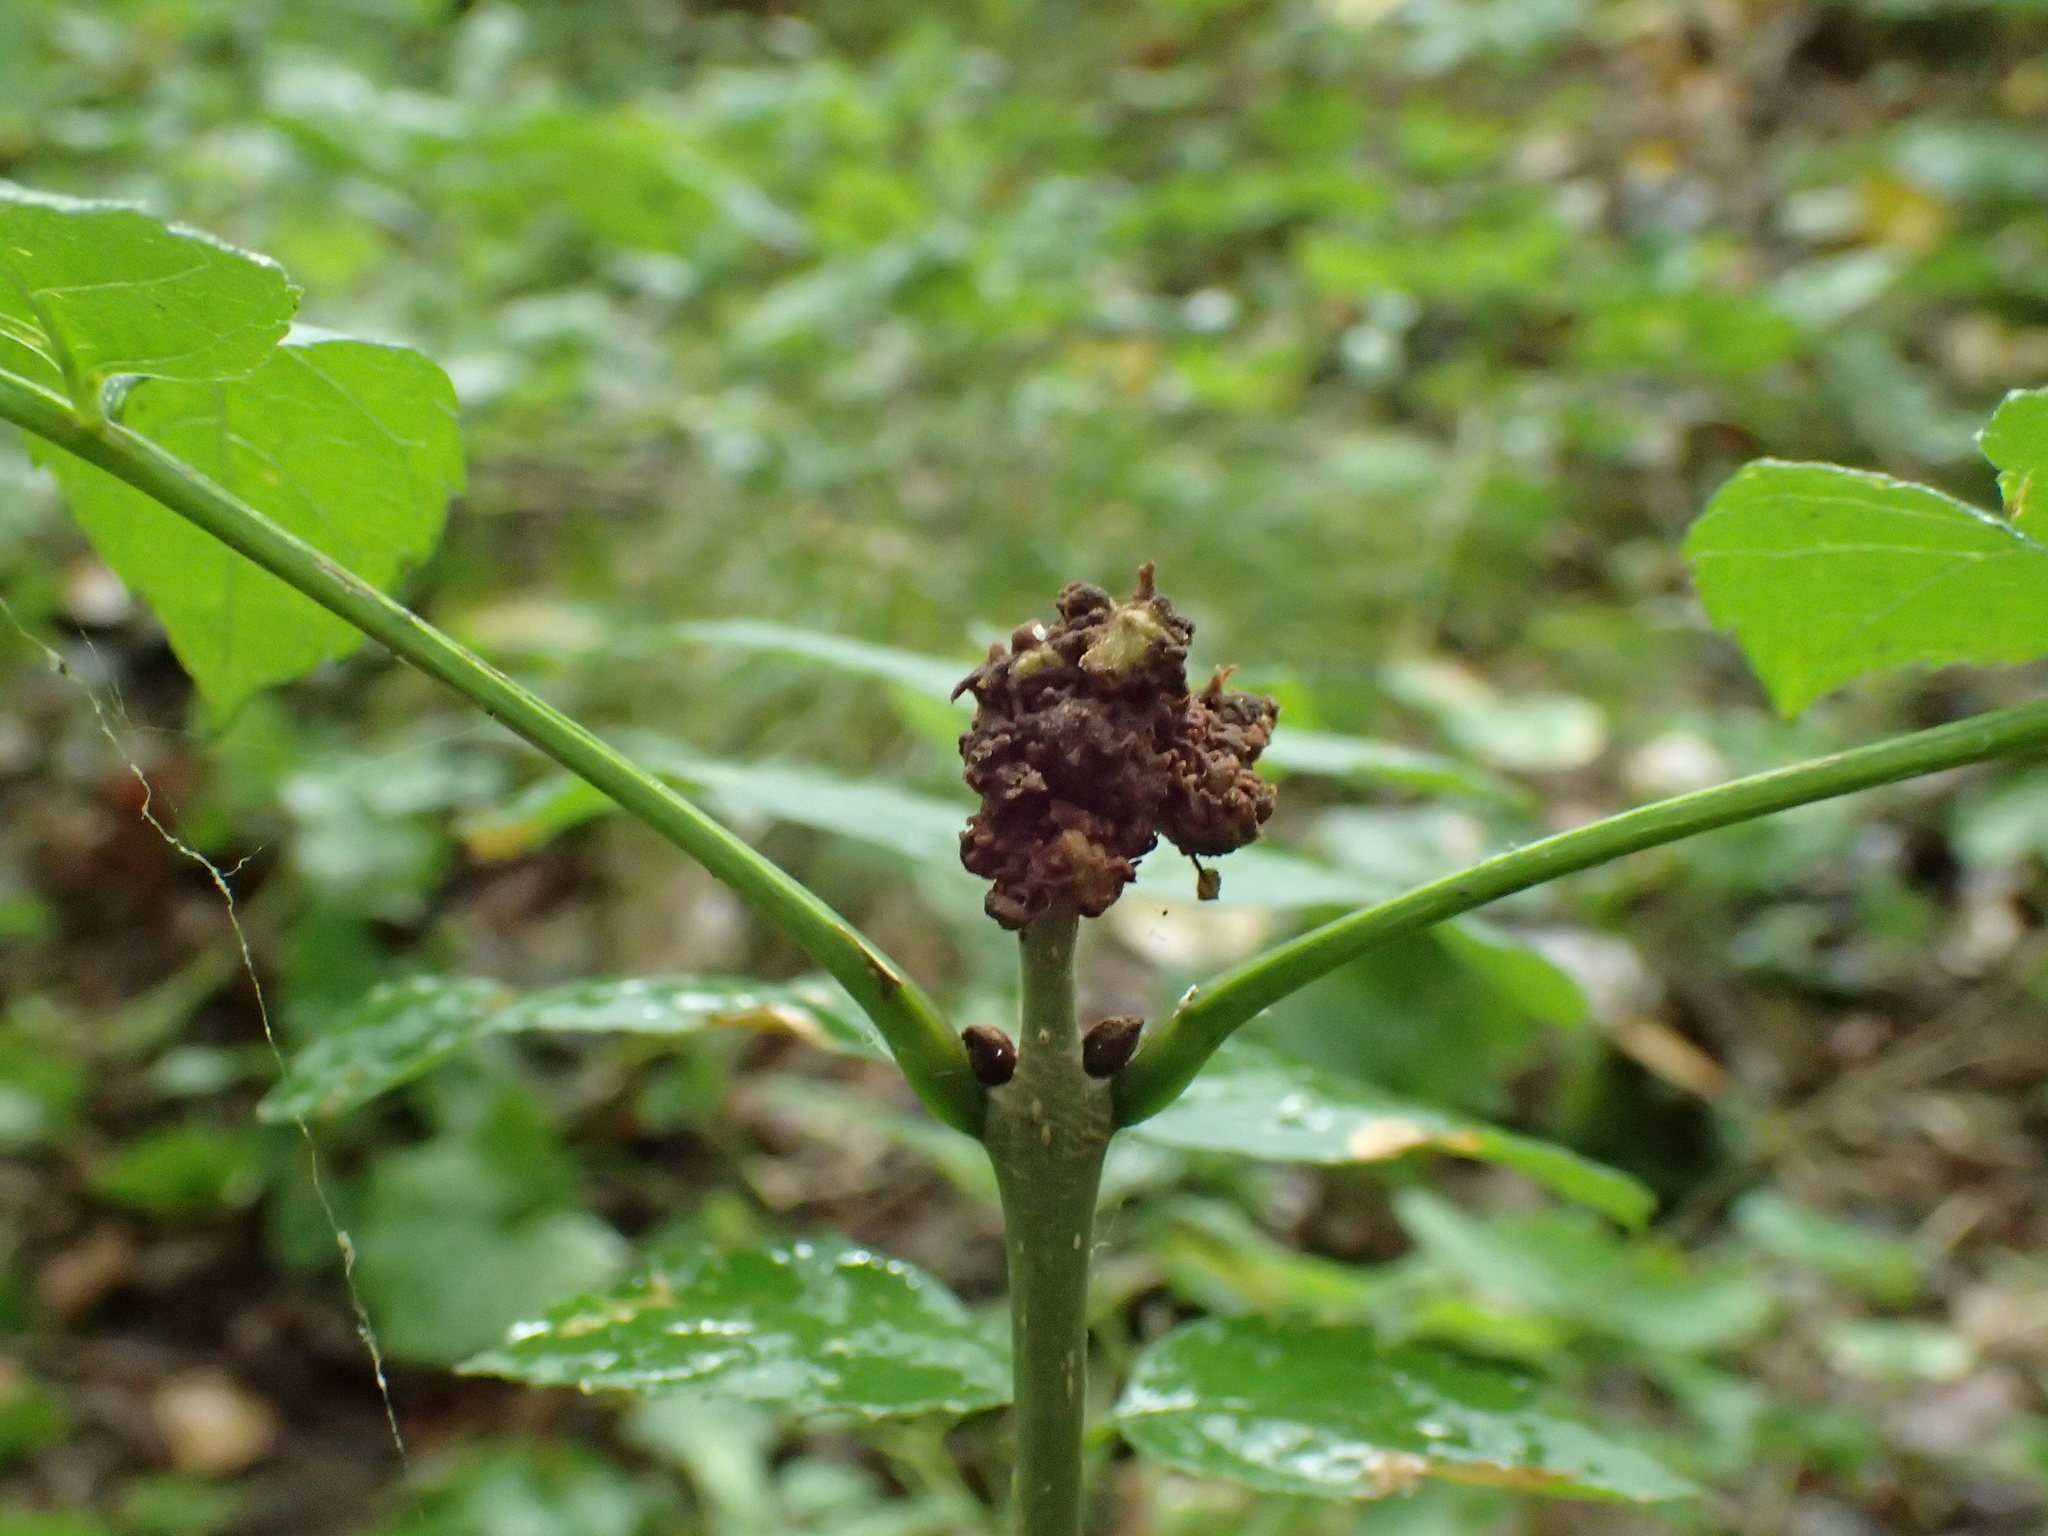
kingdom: Animalia
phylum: Arthropoda
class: Arachnida
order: Trombidiformes
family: Eriophyidae
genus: Aceria
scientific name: Aceria fraxinivora
